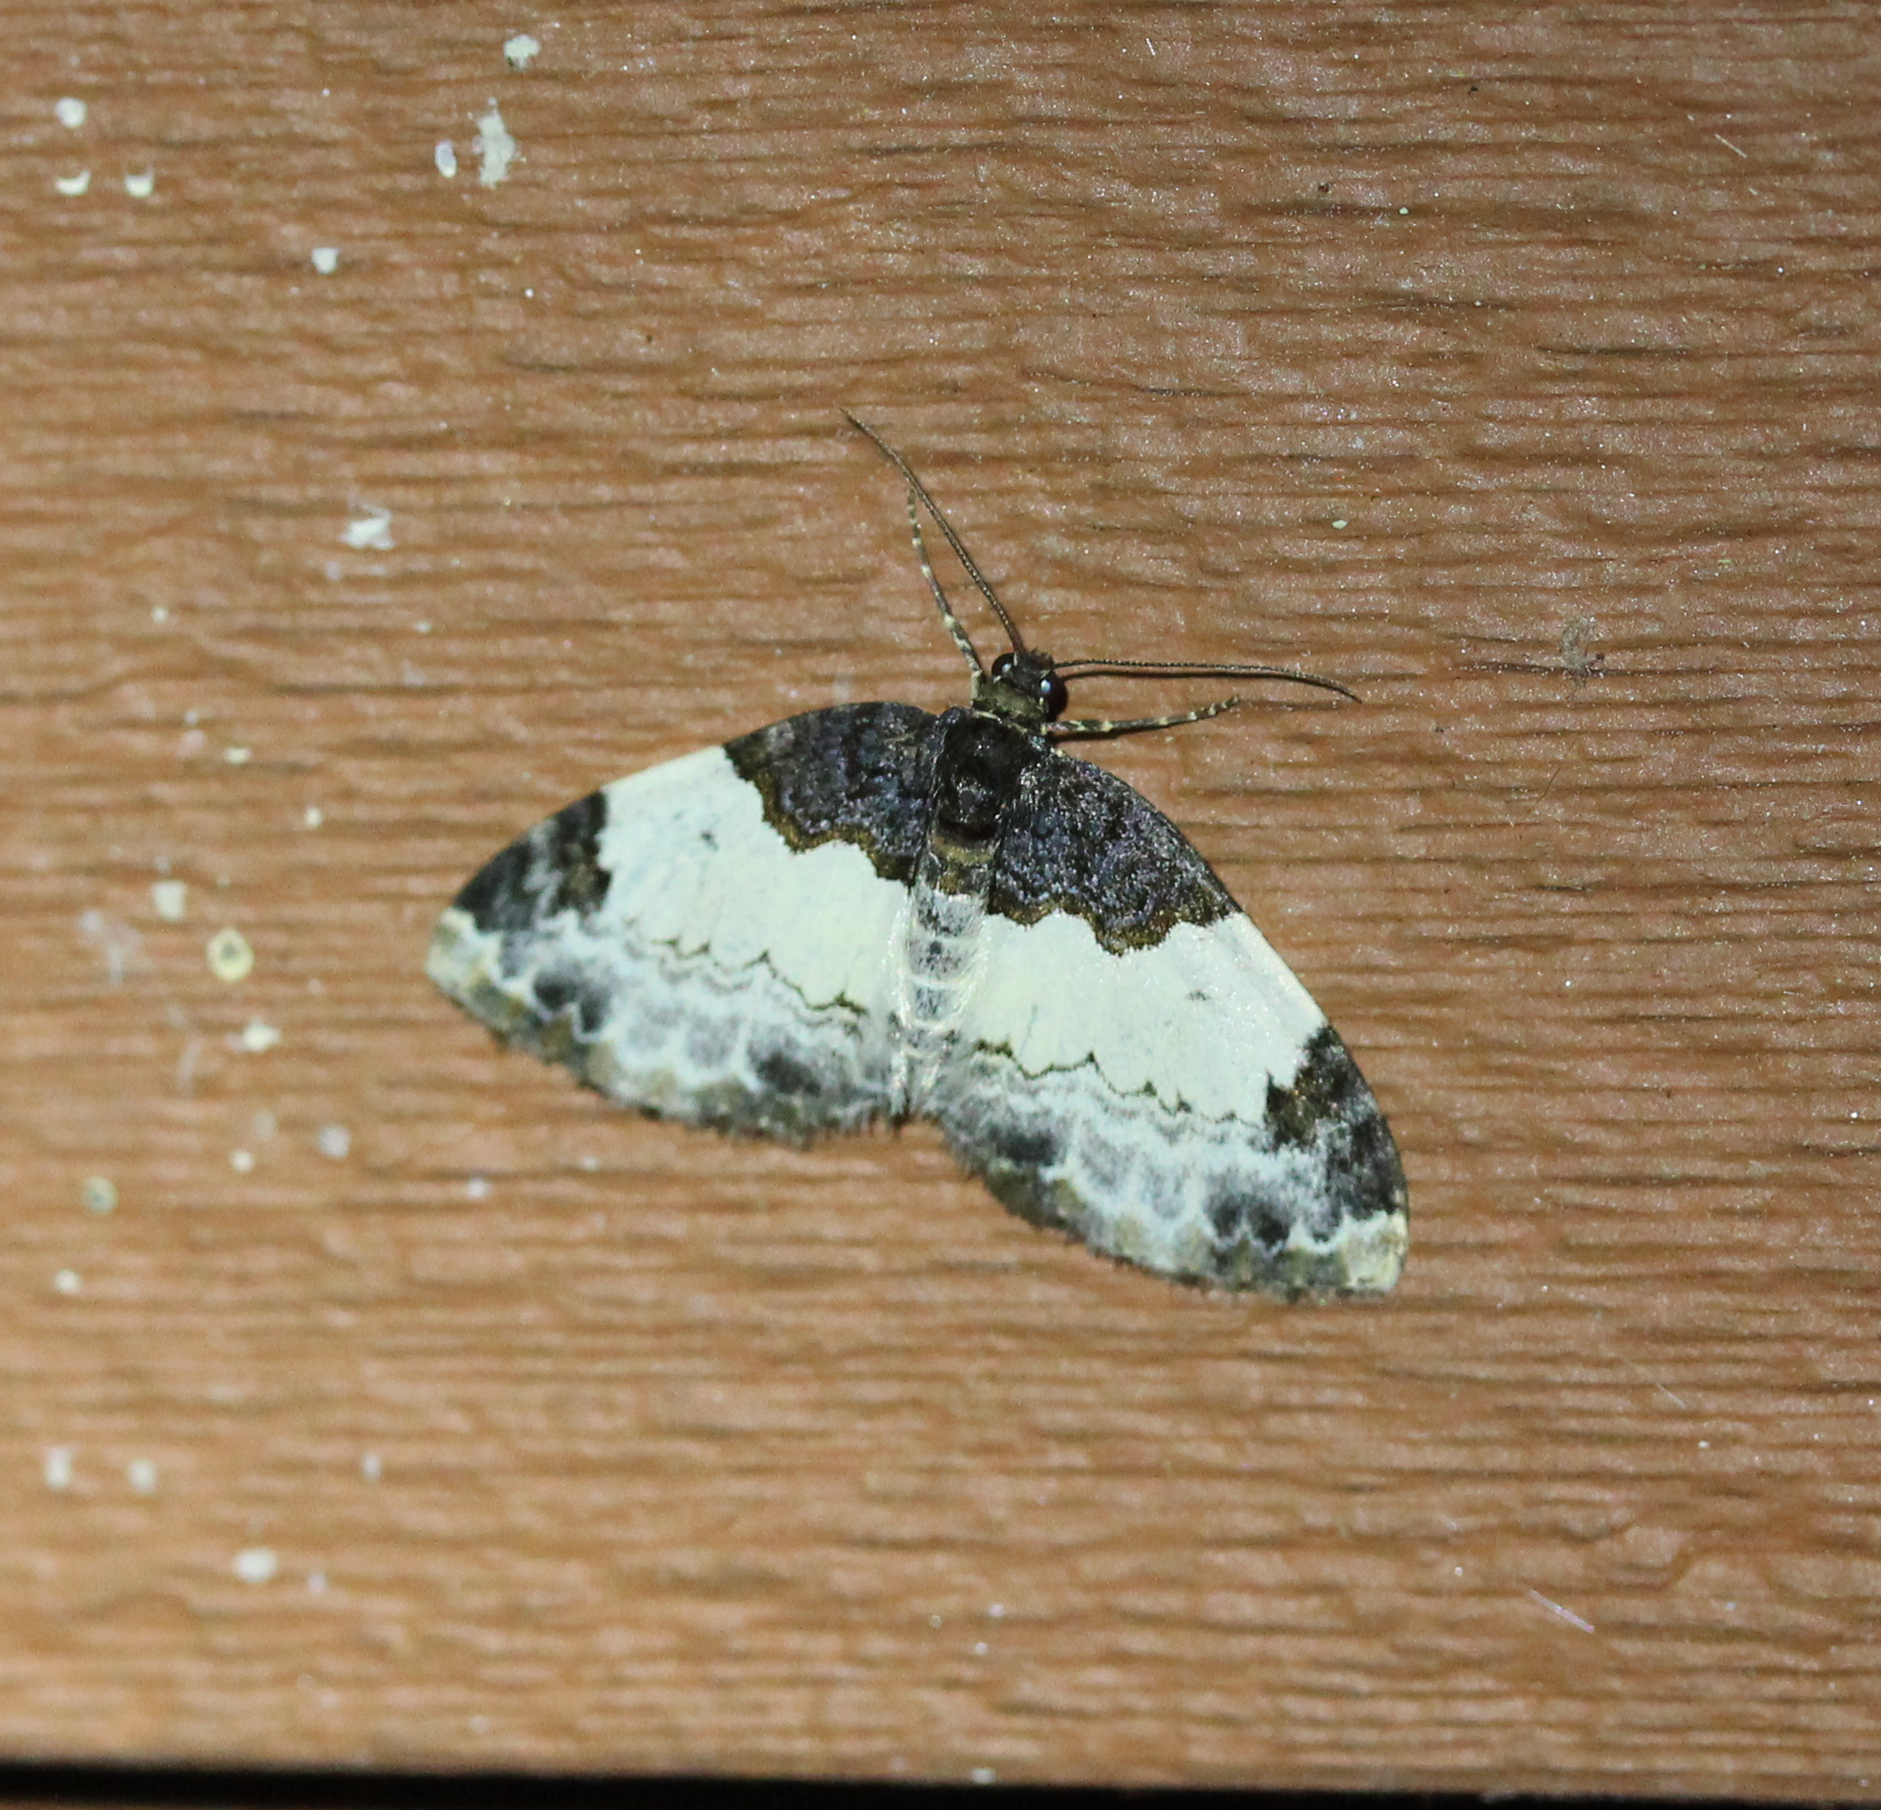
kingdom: Animalia
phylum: Arthropoda
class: Insecta
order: Lepidoptera
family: Geometridae
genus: Mesoleuca
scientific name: Mesoleuca ruficillata
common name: White-ribboned carpet moth
